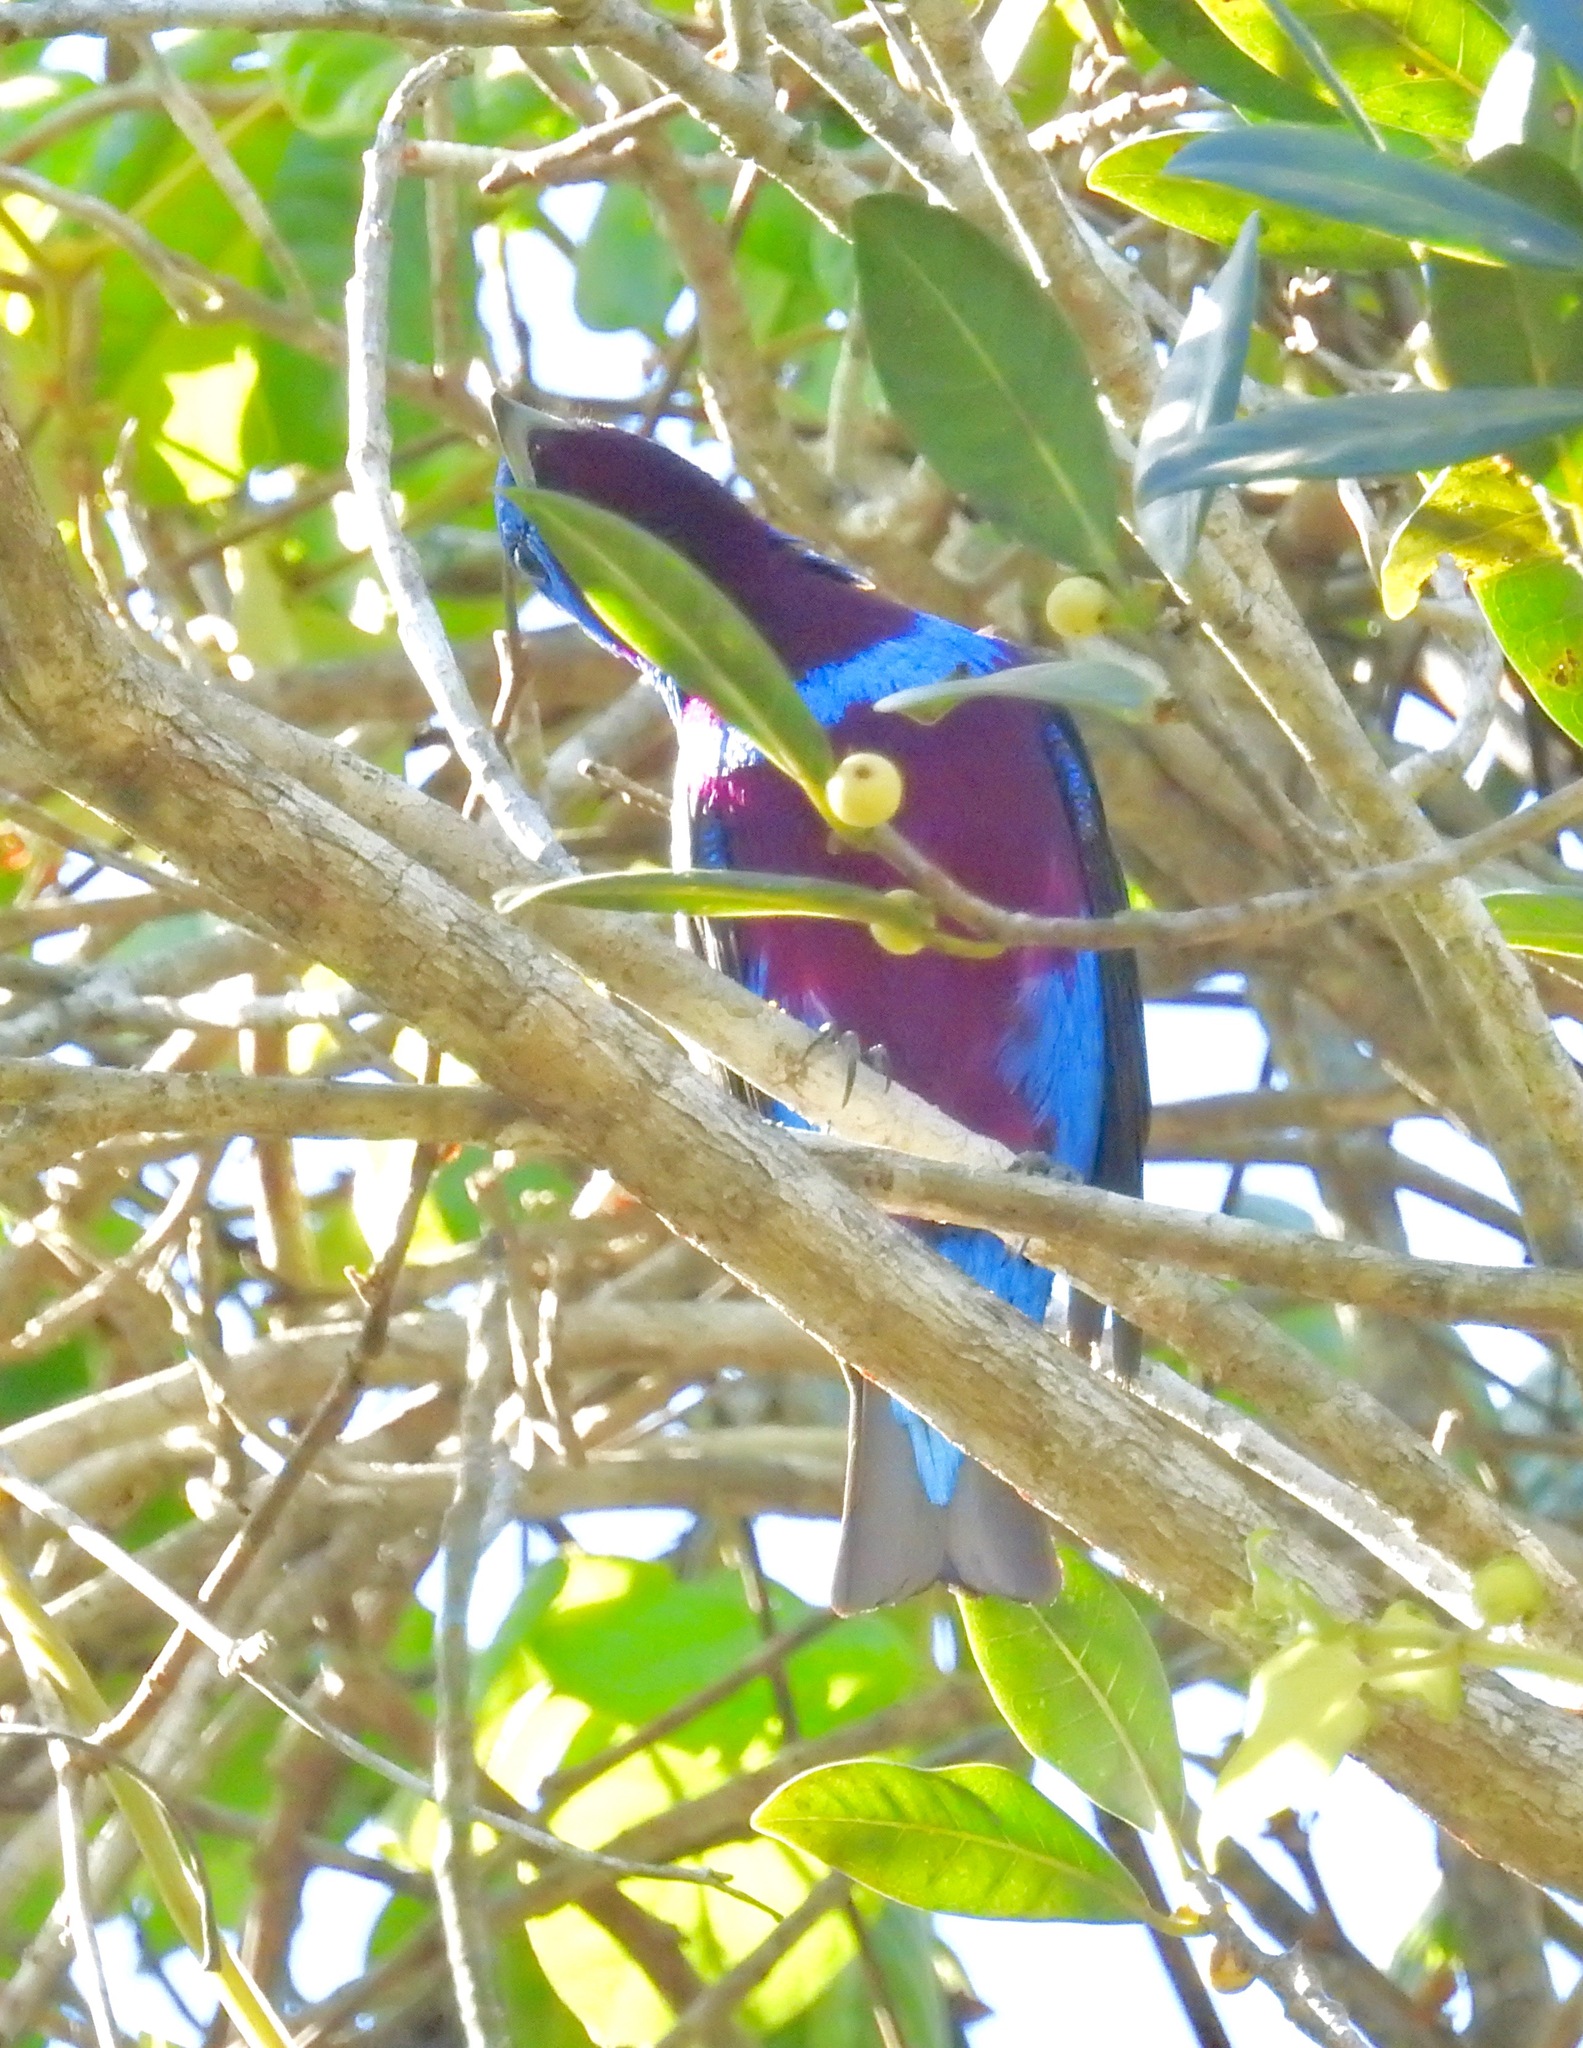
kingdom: Animalia
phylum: Chordata
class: Aves
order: Passeriformes
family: Cotingidae
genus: Cotinga
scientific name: Cotinga maculata
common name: Banded cotinga
